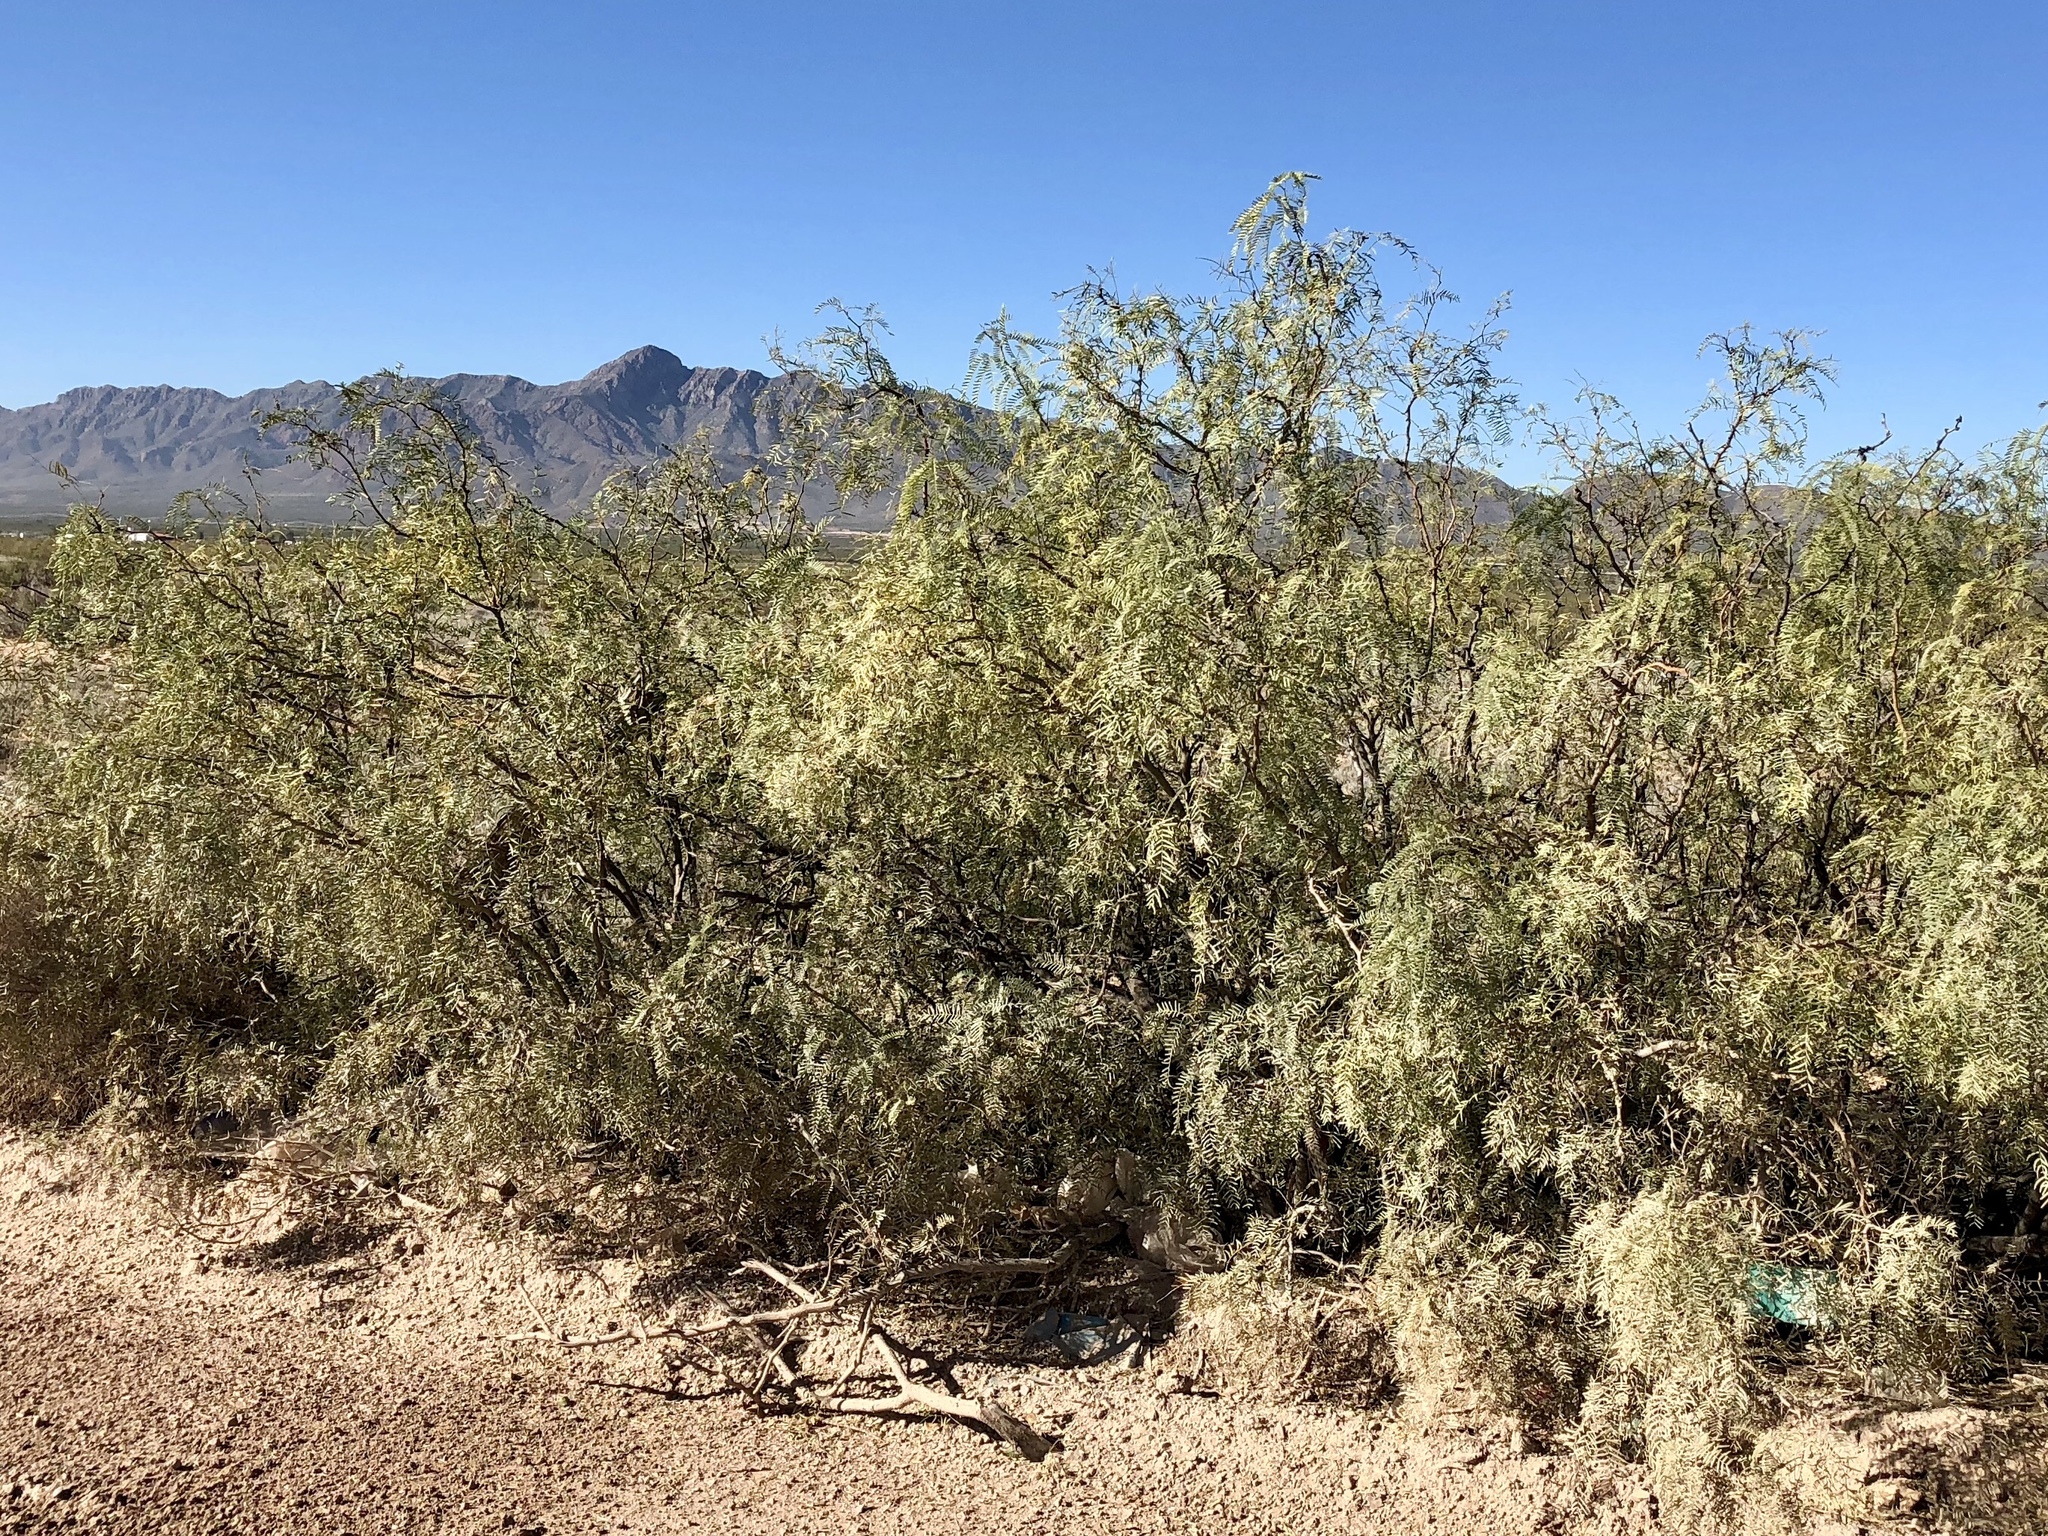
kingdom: Plantae
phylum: Tracheophyta
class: Magnoliopsida
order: Fabales
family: Fabaceae
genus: Prosopis
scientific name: Prosopis glandulosa
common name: Honey mesquite
